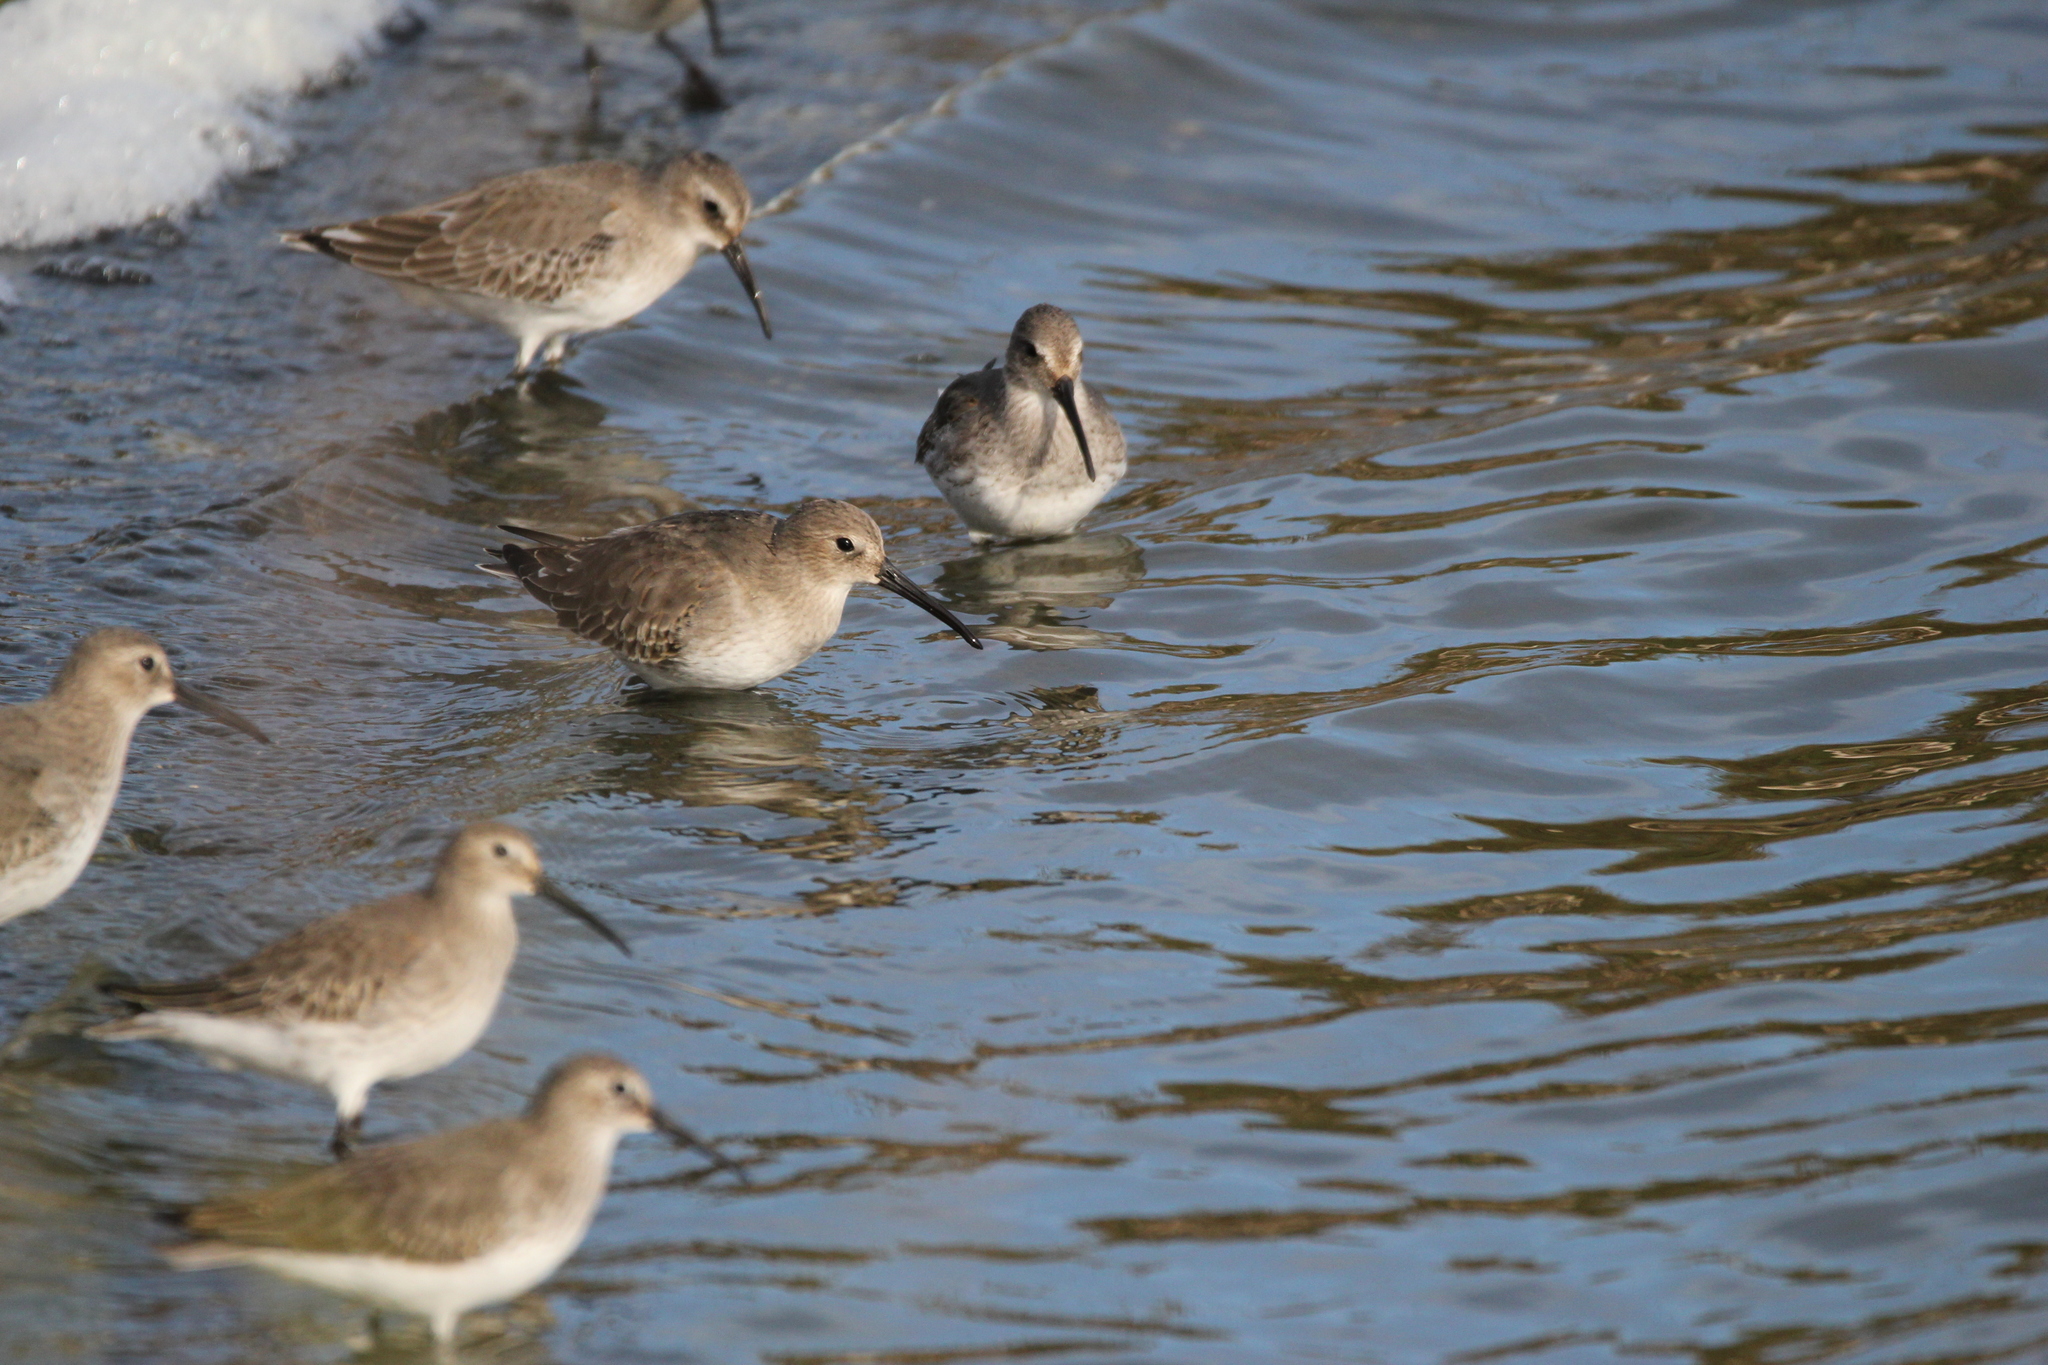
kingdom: Animalia
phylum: Chordata
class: Aves
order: Charadriiformes
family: Scolopacidae
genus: Calidris
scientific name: Calidris alpina
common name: Dunlin
